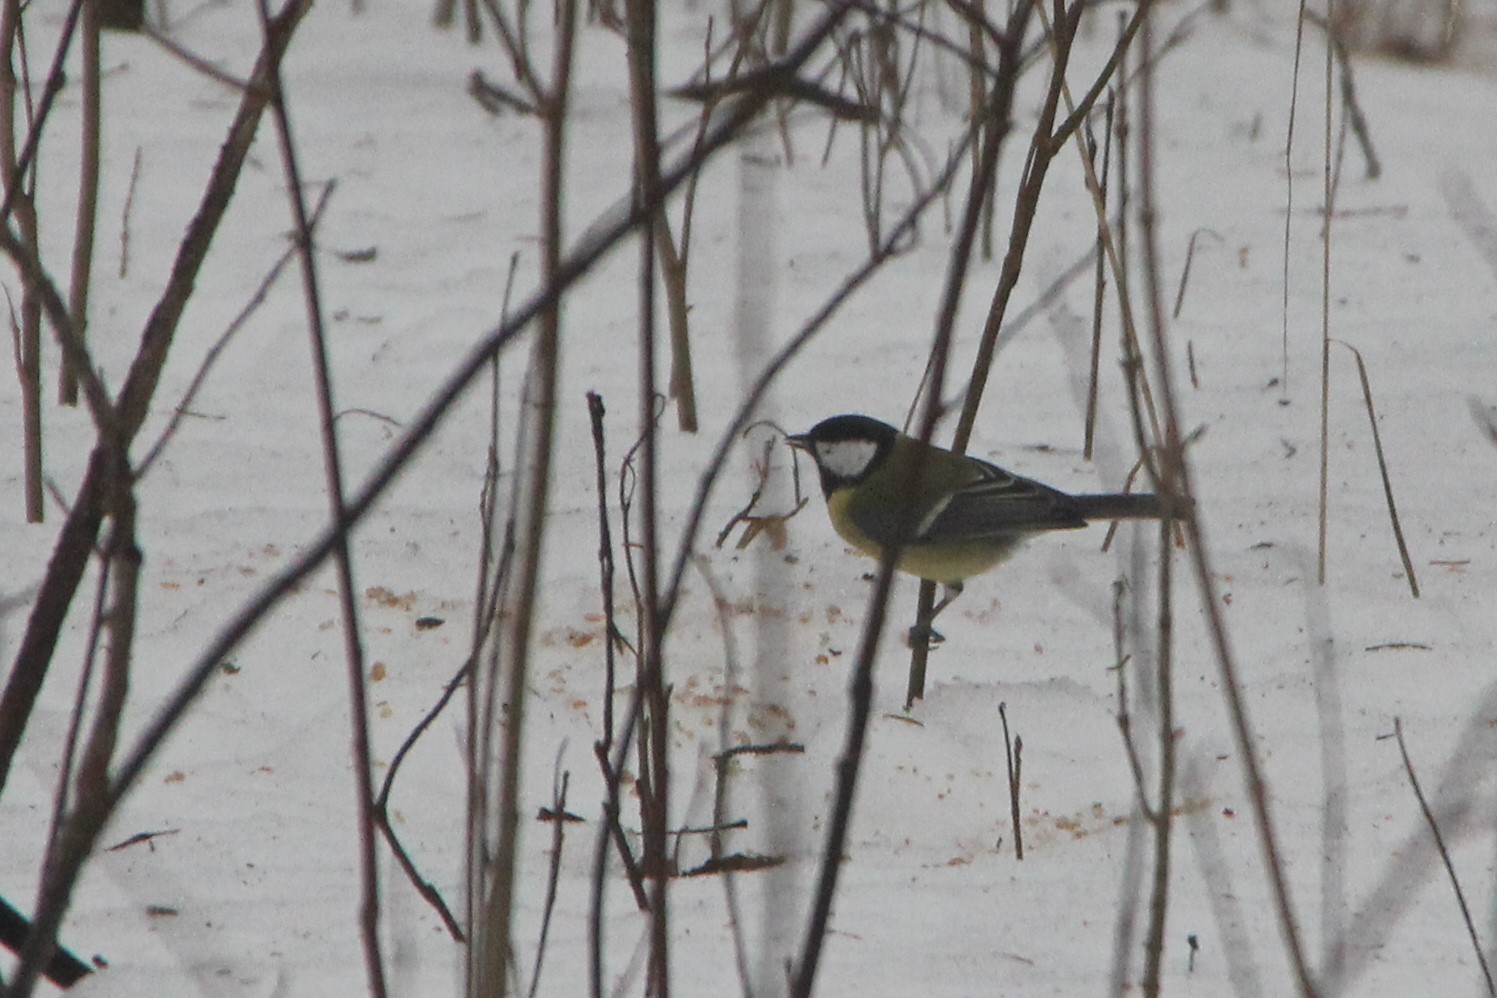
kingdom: Animalia
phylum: Chordata
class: Aves
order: Passeriformes
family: Paridae
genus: Parus
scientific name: Parus major
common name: Great tit
